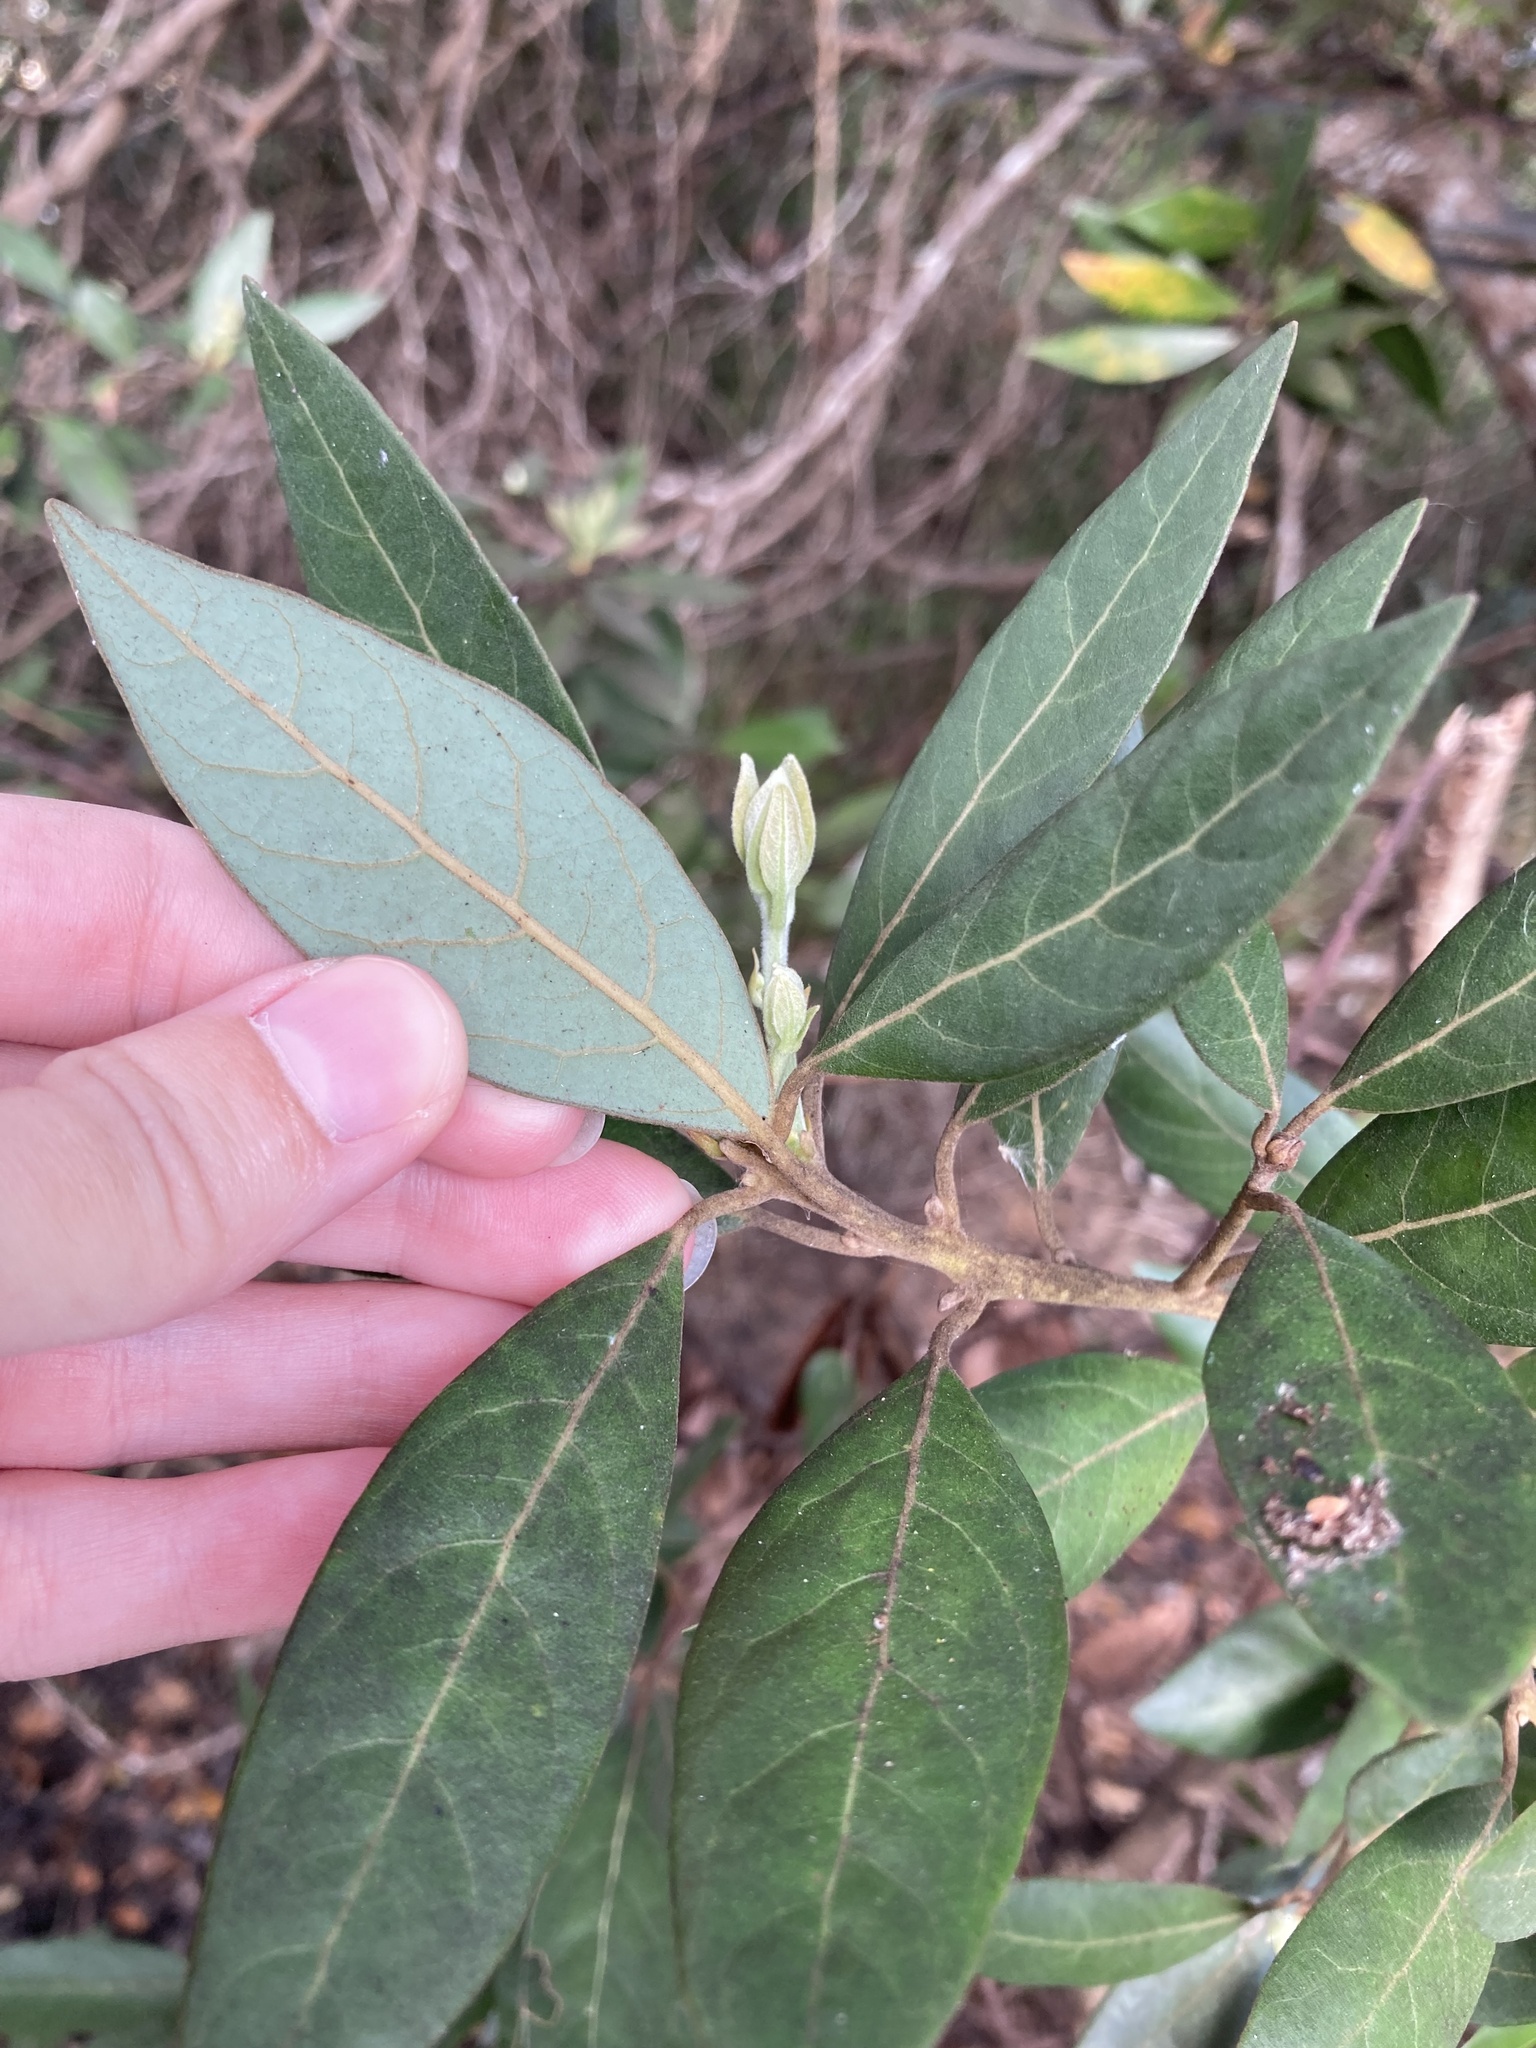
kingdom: Plantae
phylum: Tracheophyta
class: Magnoliopsida
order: Laurales
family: Lauraceae
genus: Persea
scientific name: Persea palustris
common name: Swampbay
